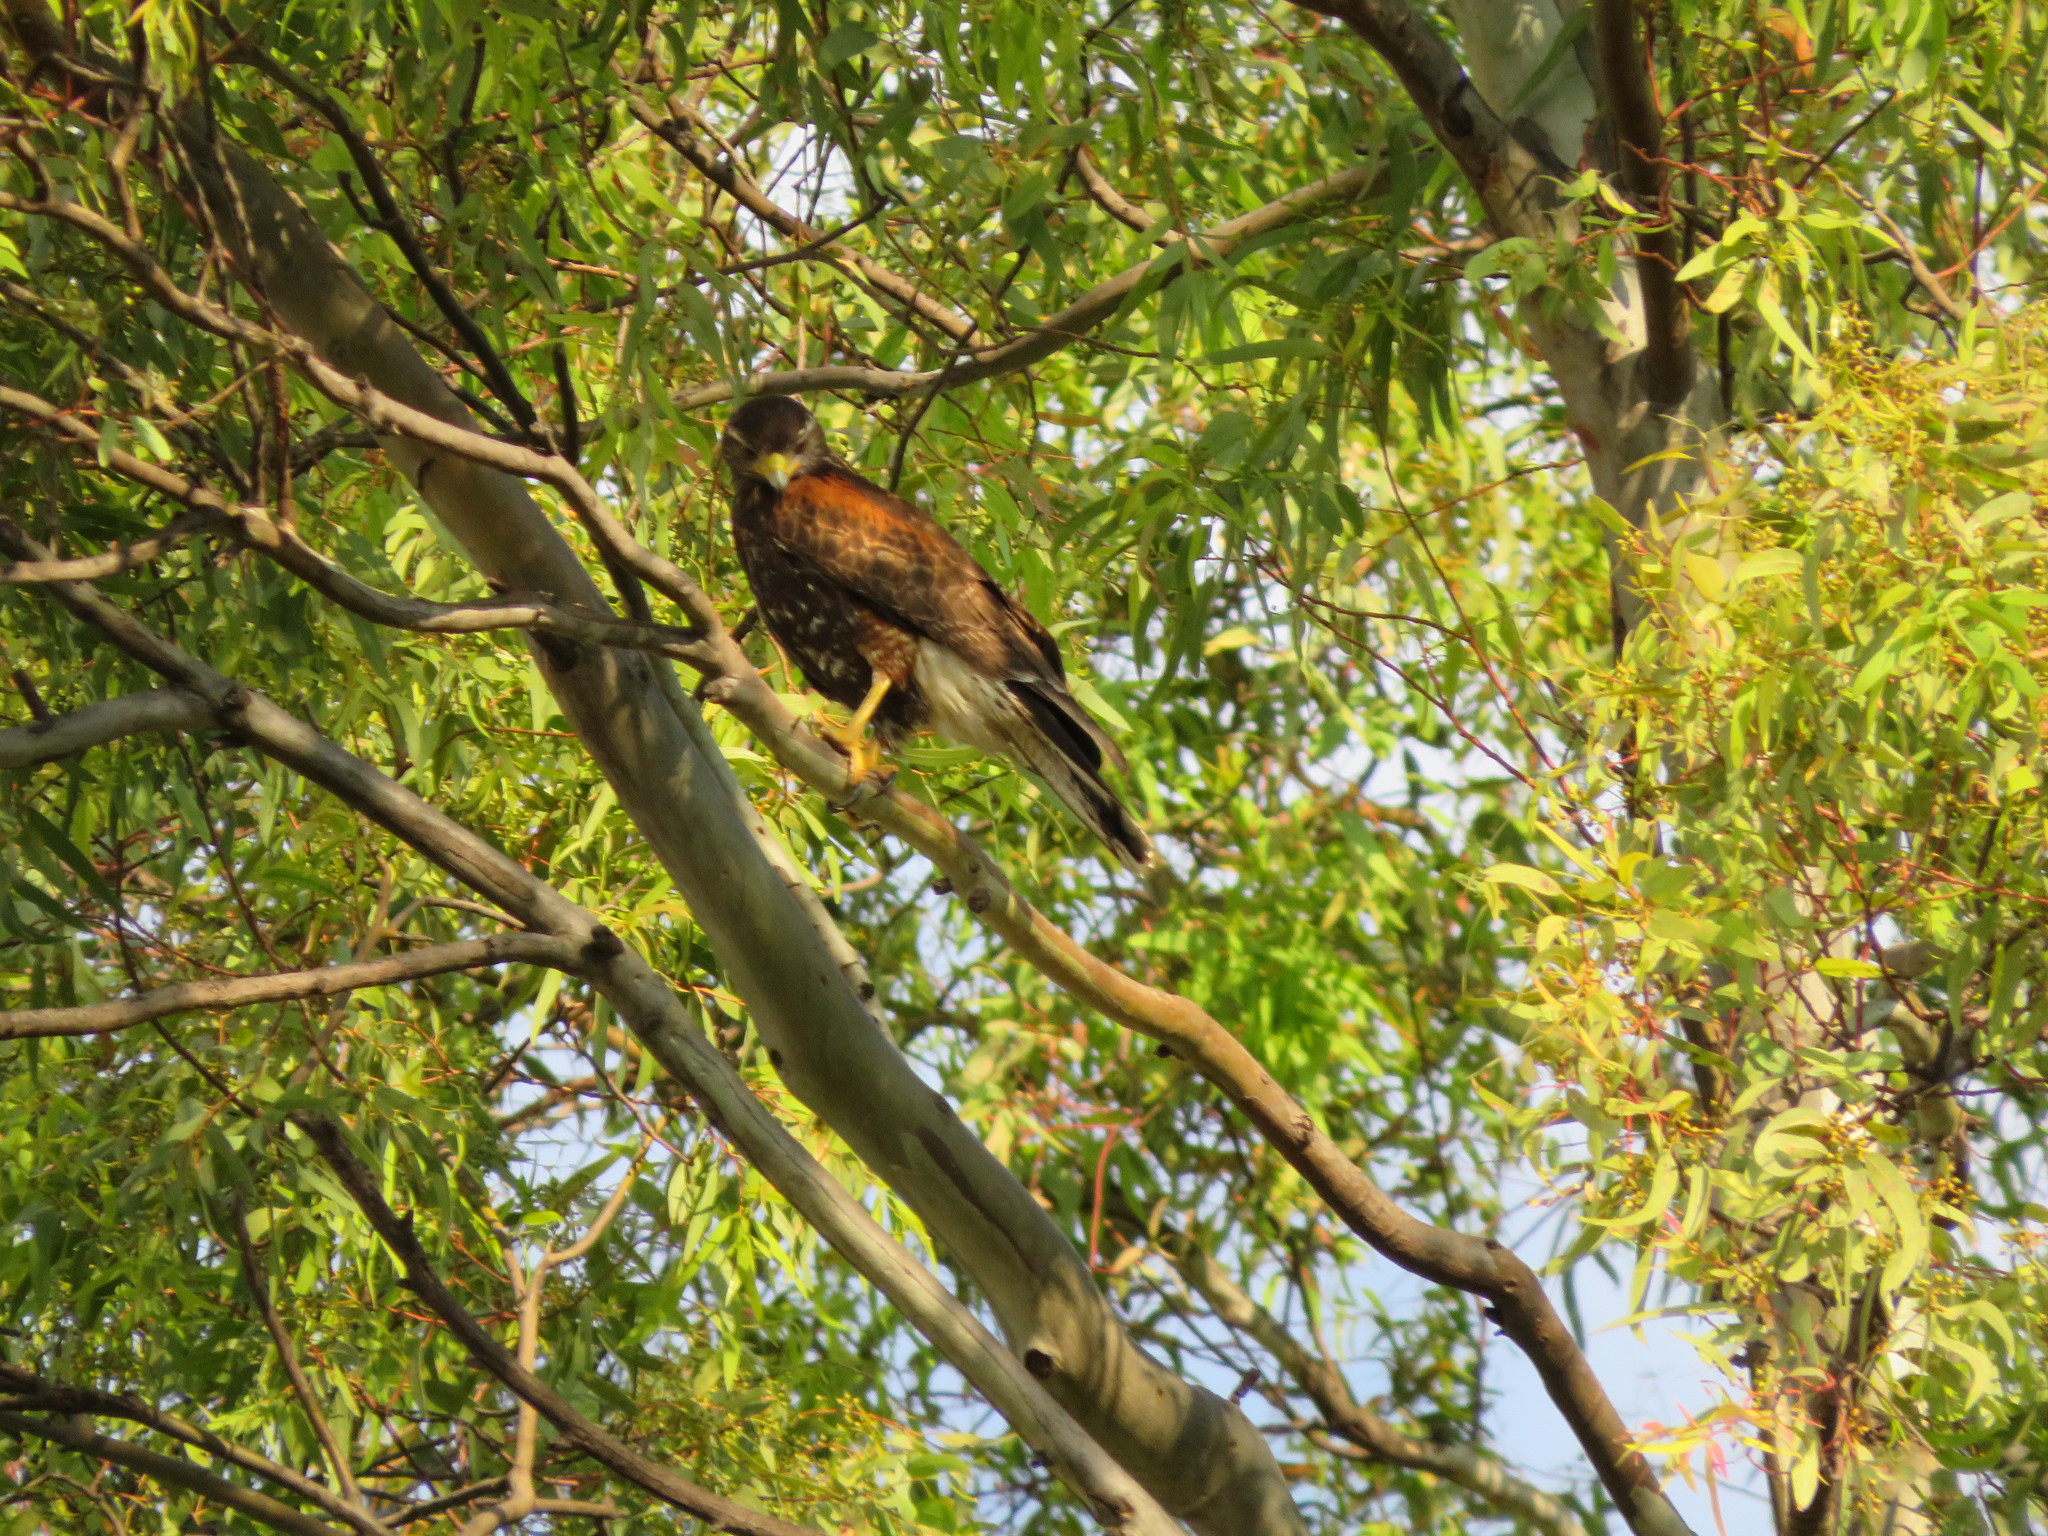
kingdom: Animalia
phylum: Chordata
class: Aves
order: Accipitriformes
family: Accipitridae
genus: Parabuteo
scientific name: Parabuteo unicinctus
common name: Harris's hawk
